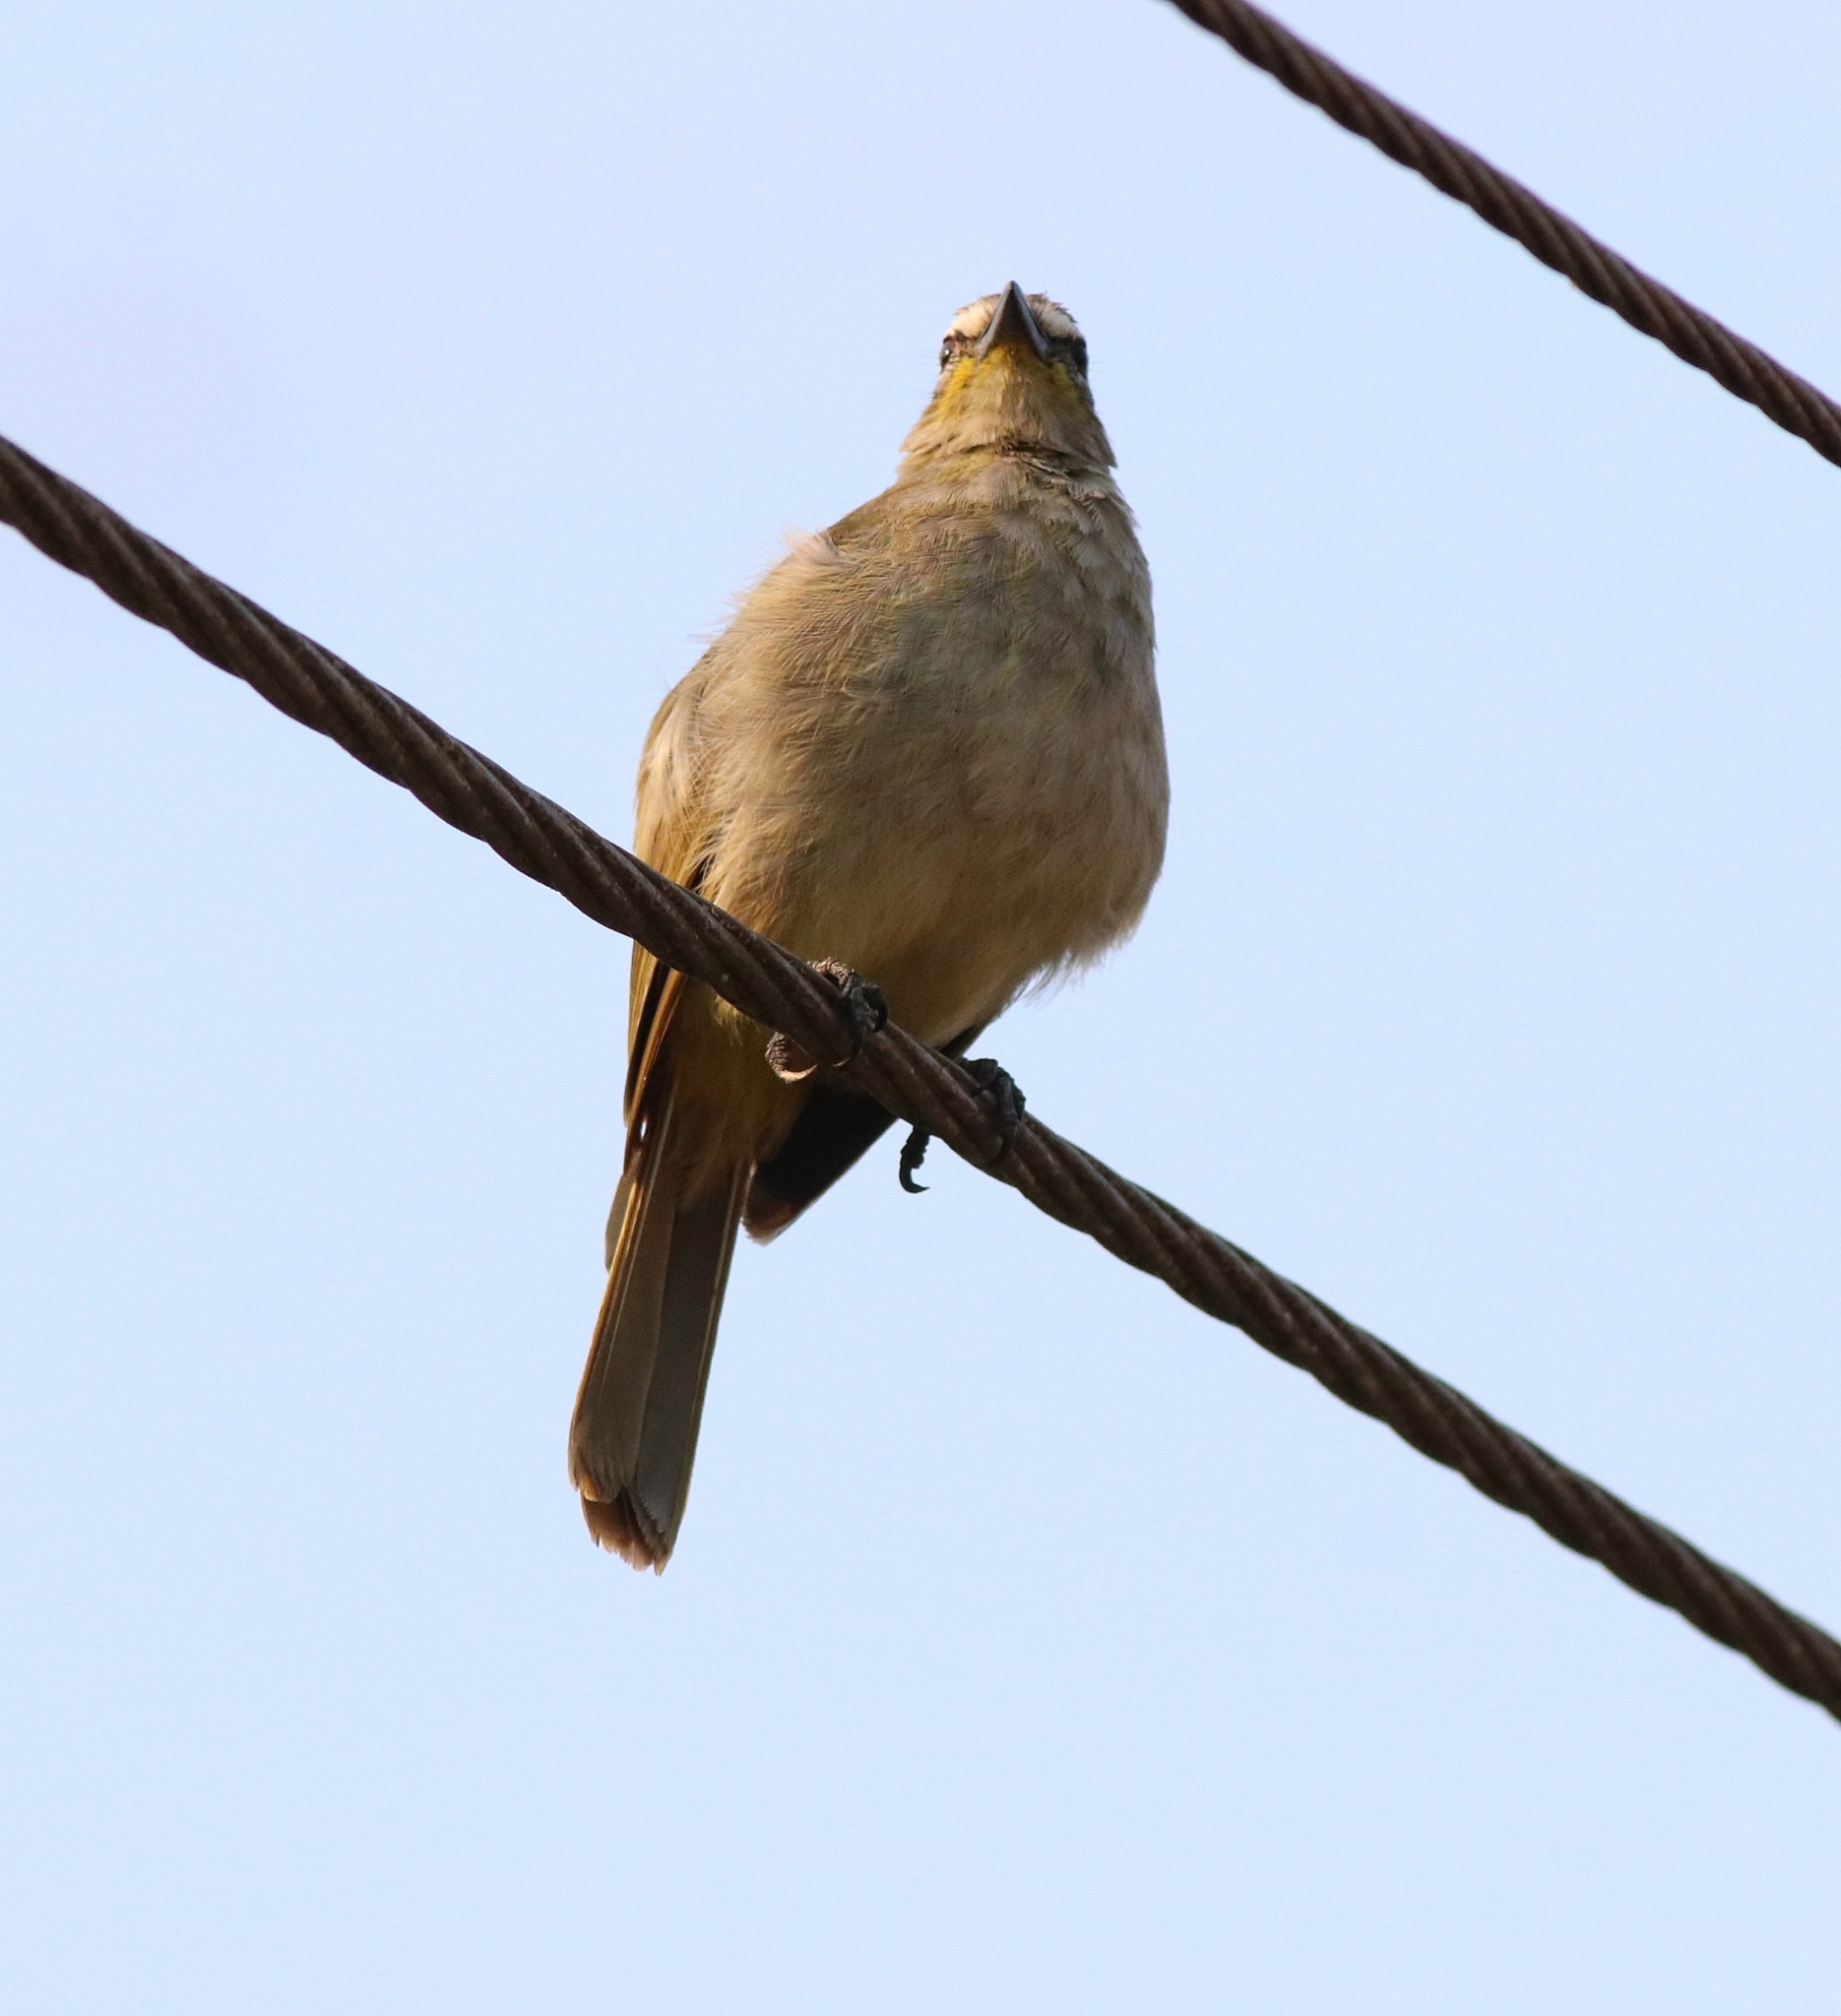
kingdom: Animalia
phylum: Chordata
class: Aves
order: Passeriformes
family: Pycnonotidae
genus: Pycnonotus
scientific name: Pycnonotus luteolus
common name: White-browed bulbul
